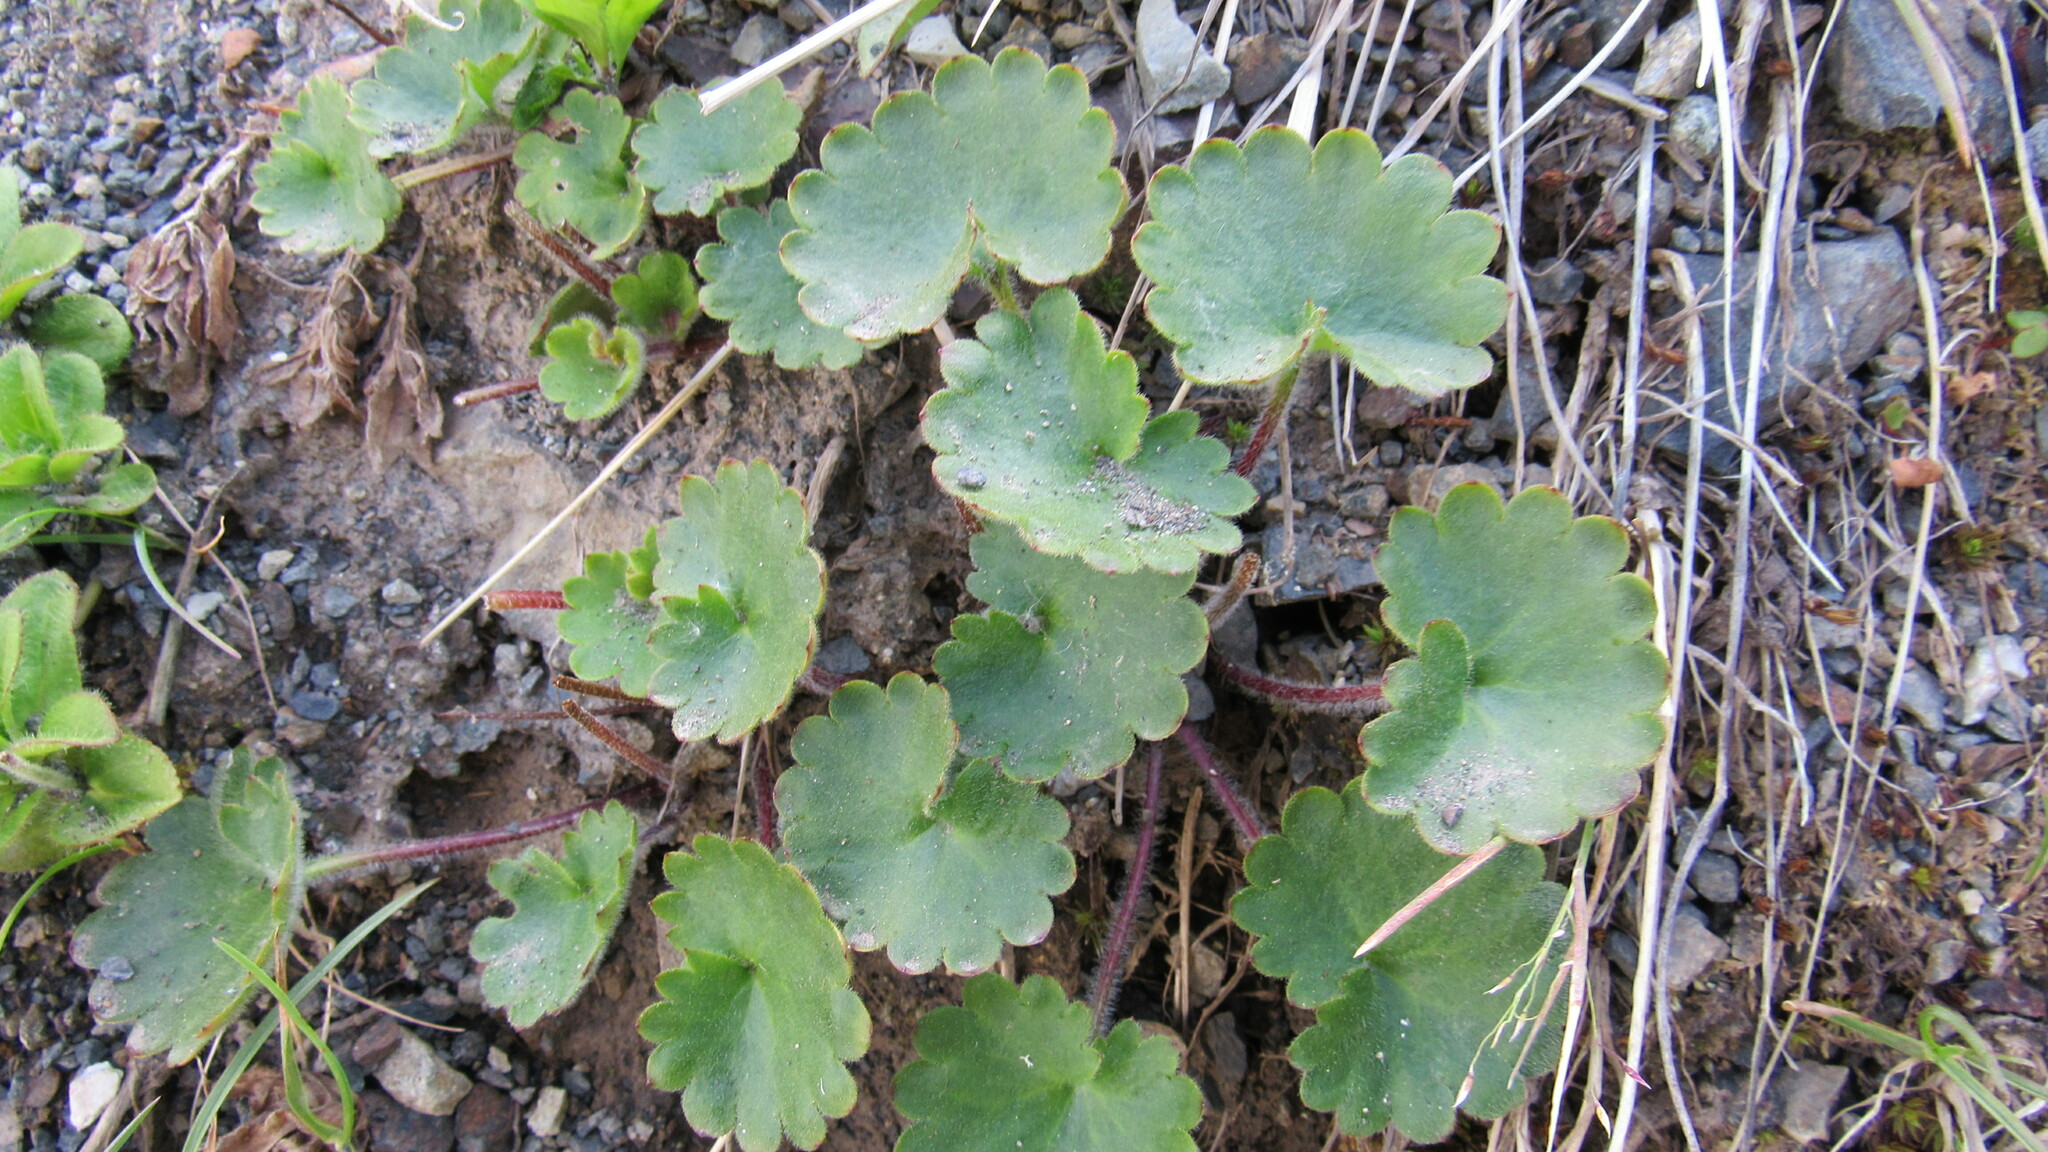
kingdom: Plantae
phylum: Tracheophyta
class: Magnoliopsida
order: Saxifragales
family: Saxifragaceae
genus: Micranthes
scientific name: Micranthes nelsoniana
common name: Nelson's saxifrage
